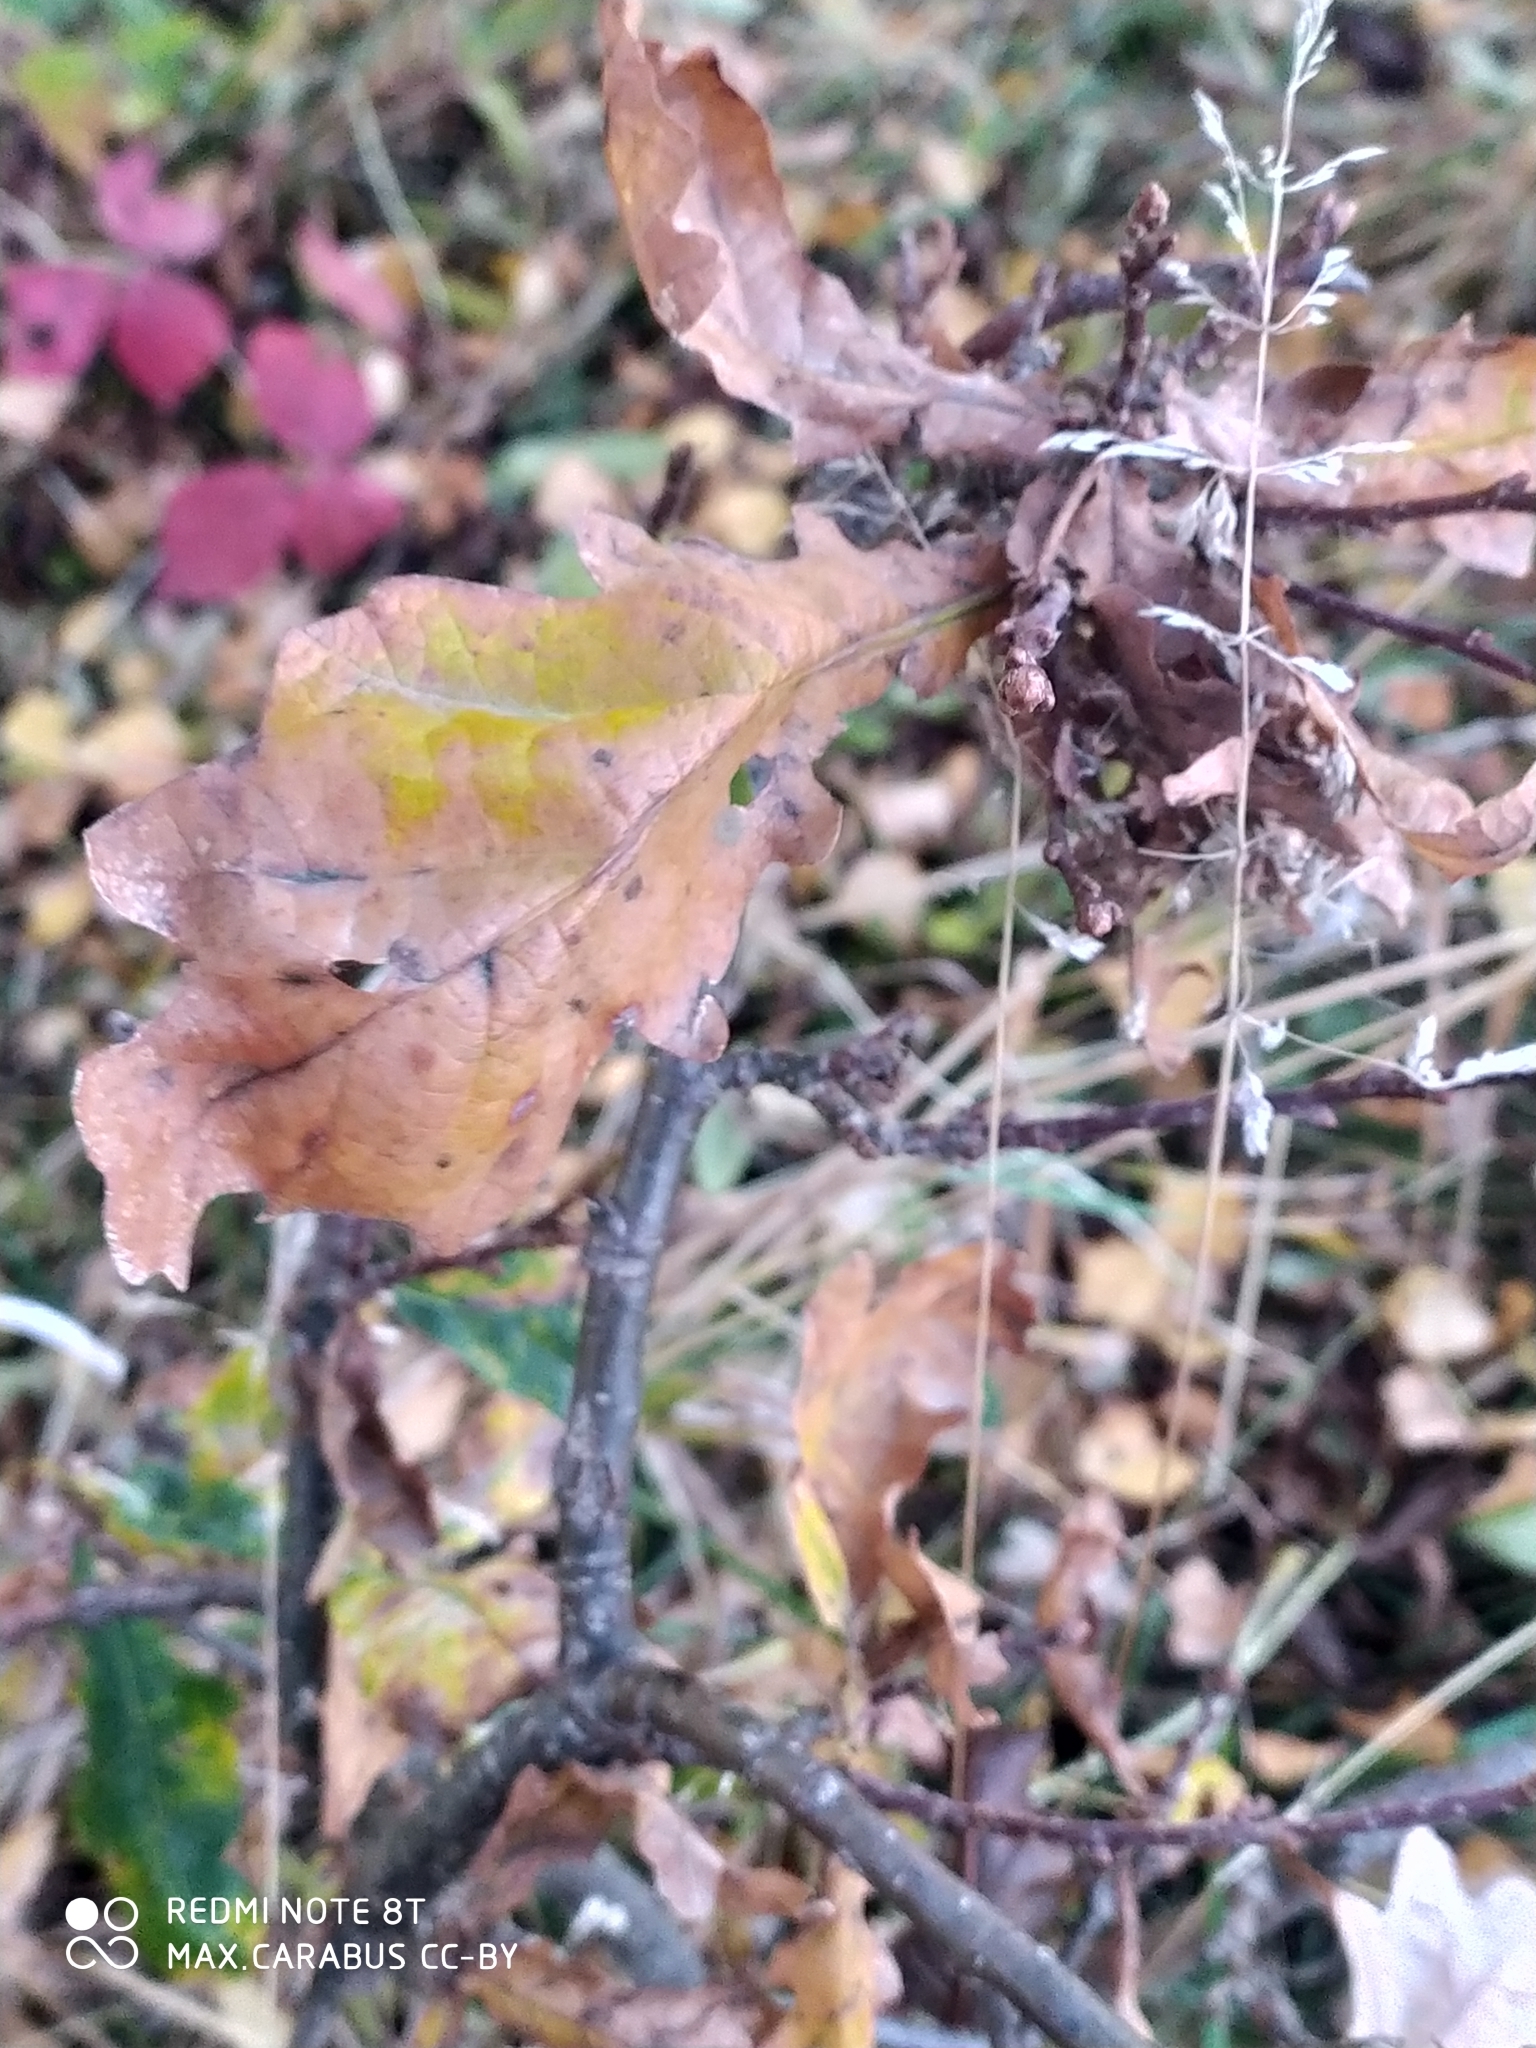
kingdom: Plantae
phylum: Tracheophyta
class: Magnoliopsida
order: Fagales
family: Fagaceae
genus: Quercus
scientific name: Quercus robur
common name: Pedunculate oak
